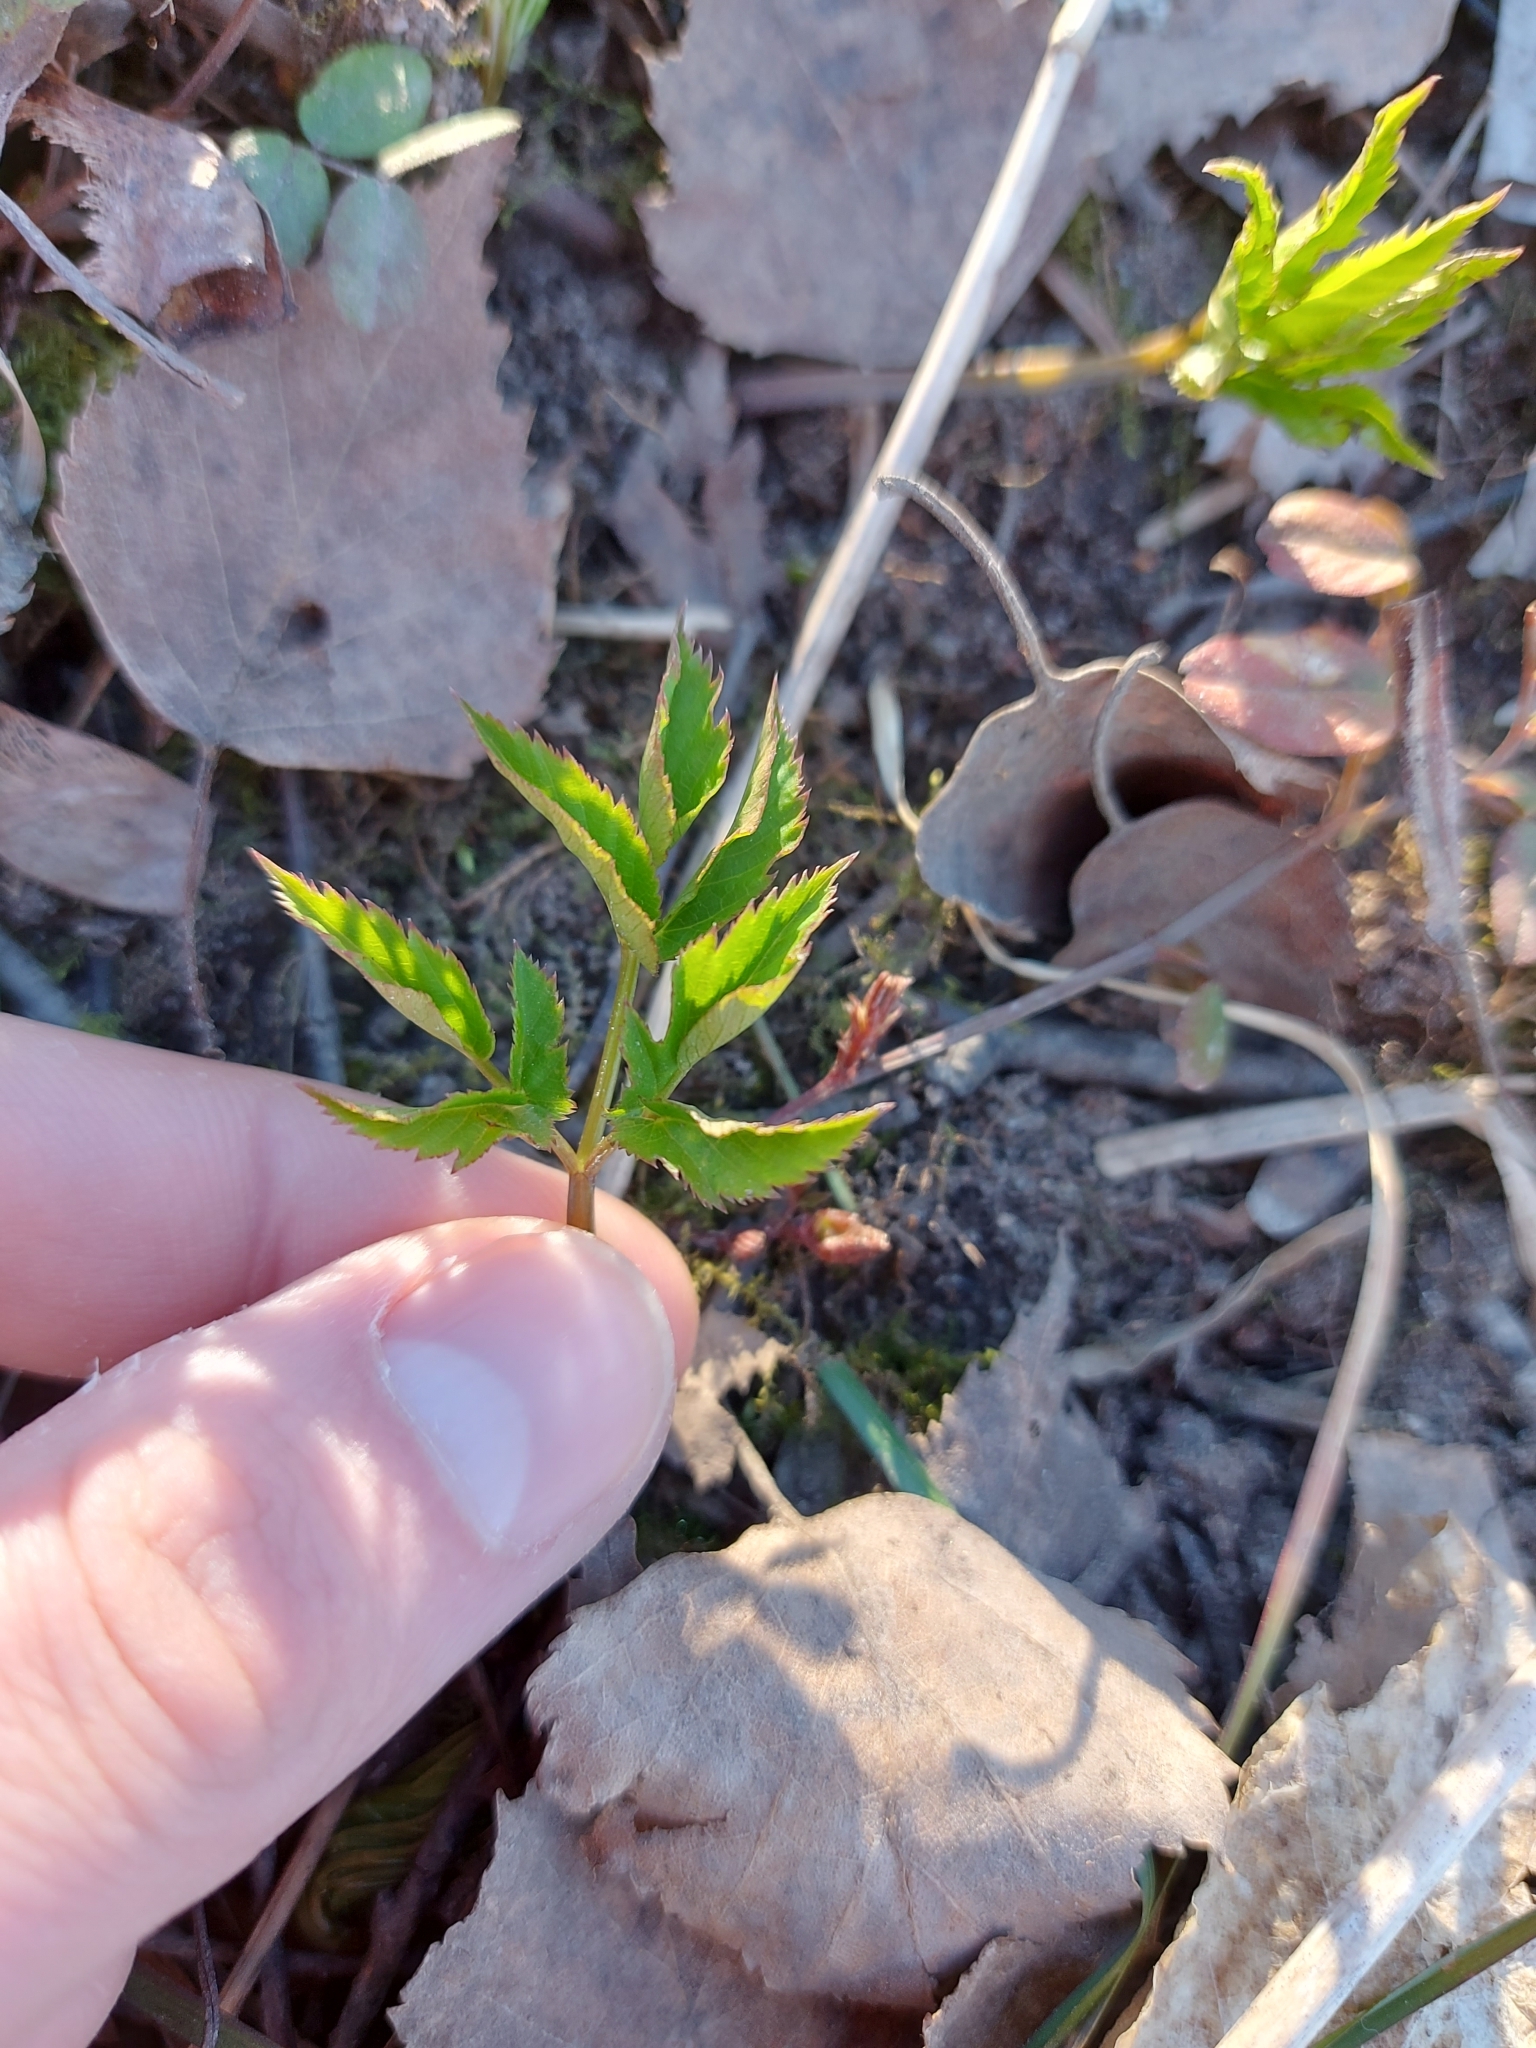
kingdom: Plantae
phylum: Tracheophyta
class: Magnoliopsida
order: Apiales
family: Apiaceae
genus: Aegopodium
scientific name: Aegopodium podagraria
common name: Ground-elder
